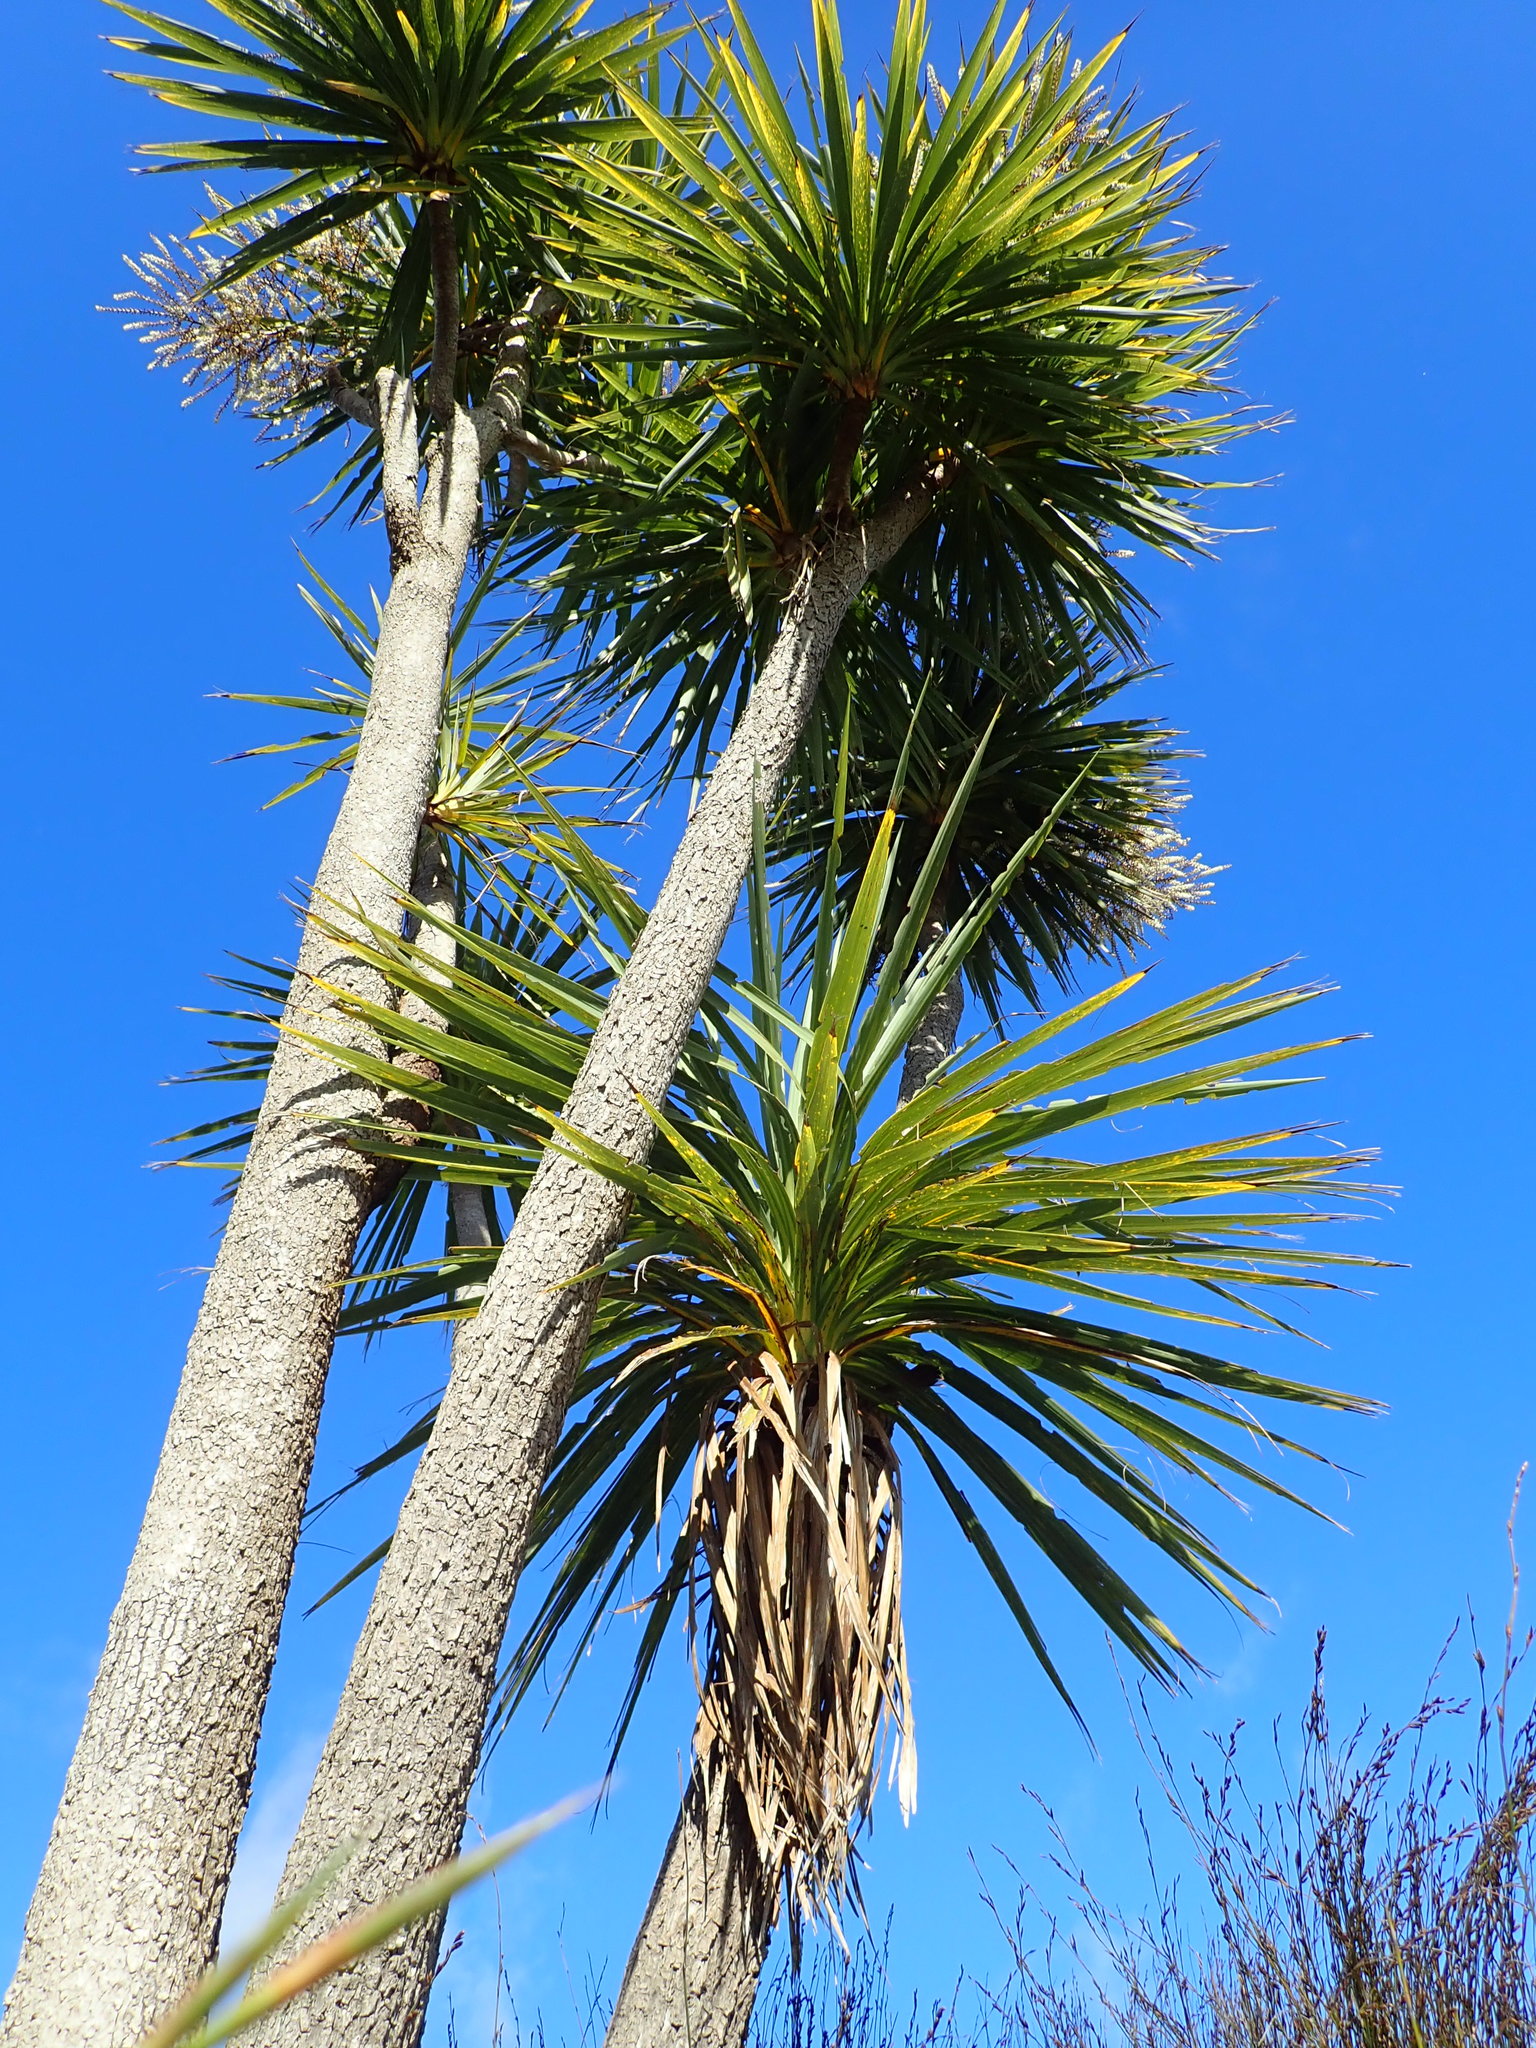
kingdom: Plantae
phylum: Tracheophyta
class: Liliopsida
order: Asparagales
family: Asparagaceae
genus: Cordyline
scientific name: Cordyline australis
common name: Cabbage-palm
